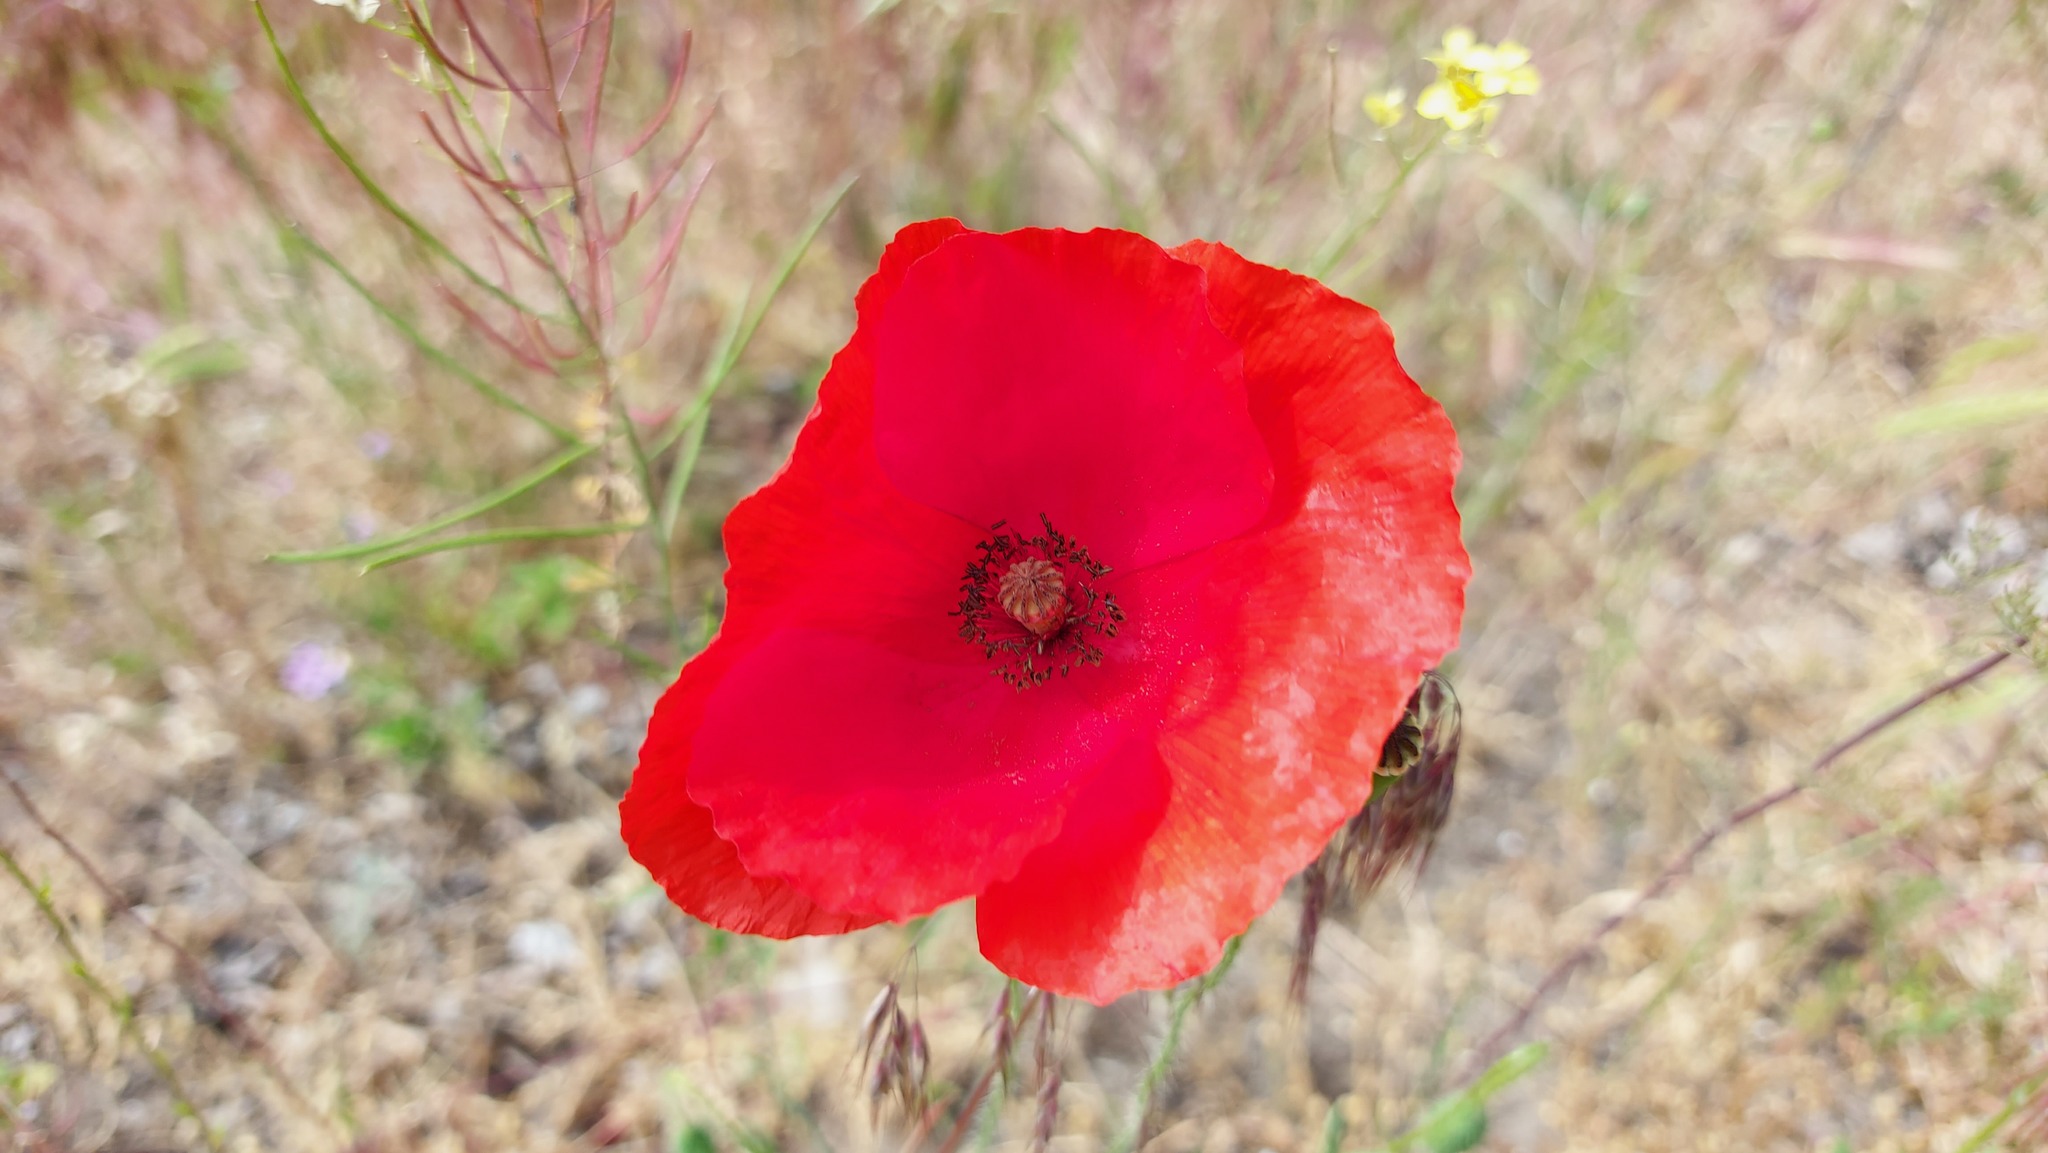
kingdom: Plantae
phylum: Tracheophyta
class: Magnoliopsida
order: Ranunculales
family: Papaveraceae
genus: Papaver
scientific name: Papaver rhoeas
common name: Corn poppy
